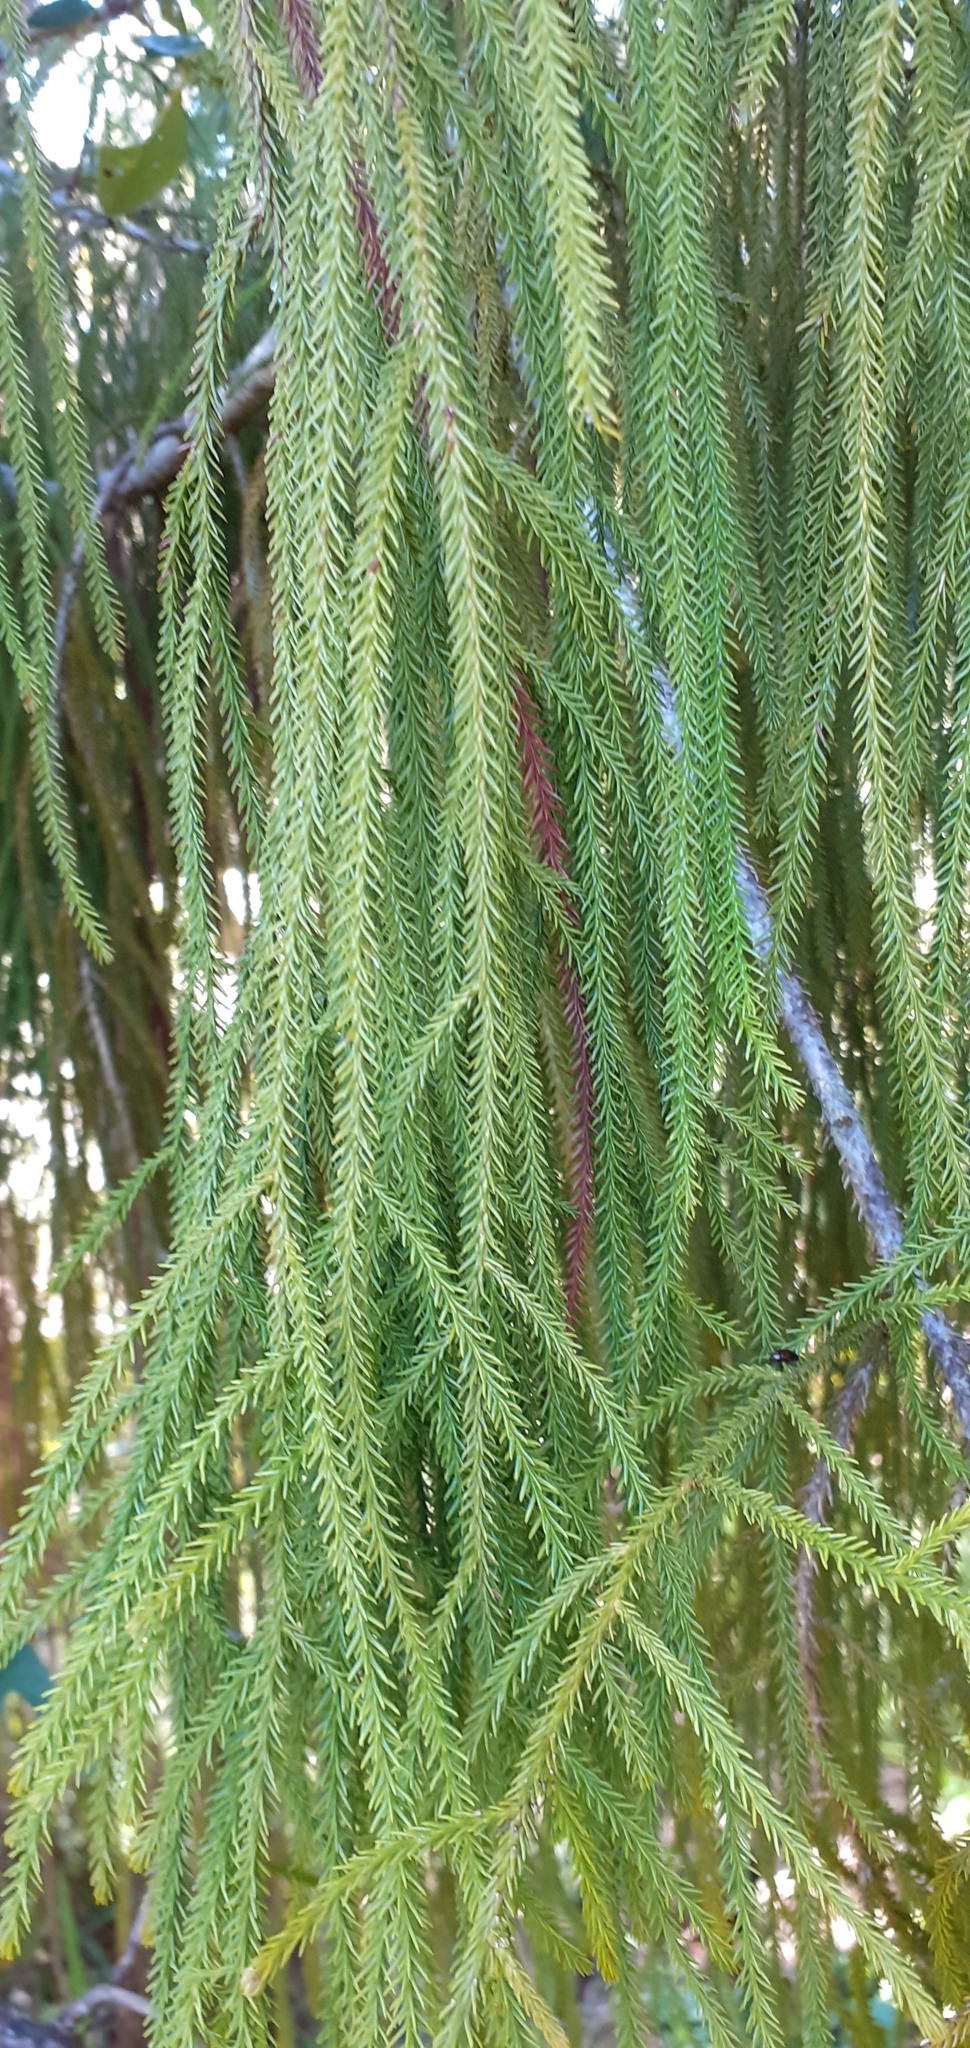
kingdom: Plantae
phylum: Tracheophyta
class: Pinopsida
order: Pinales
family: Podocarpaceae
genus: Dacrydium
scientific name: Dacrydium cupressinum
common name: Red pine
